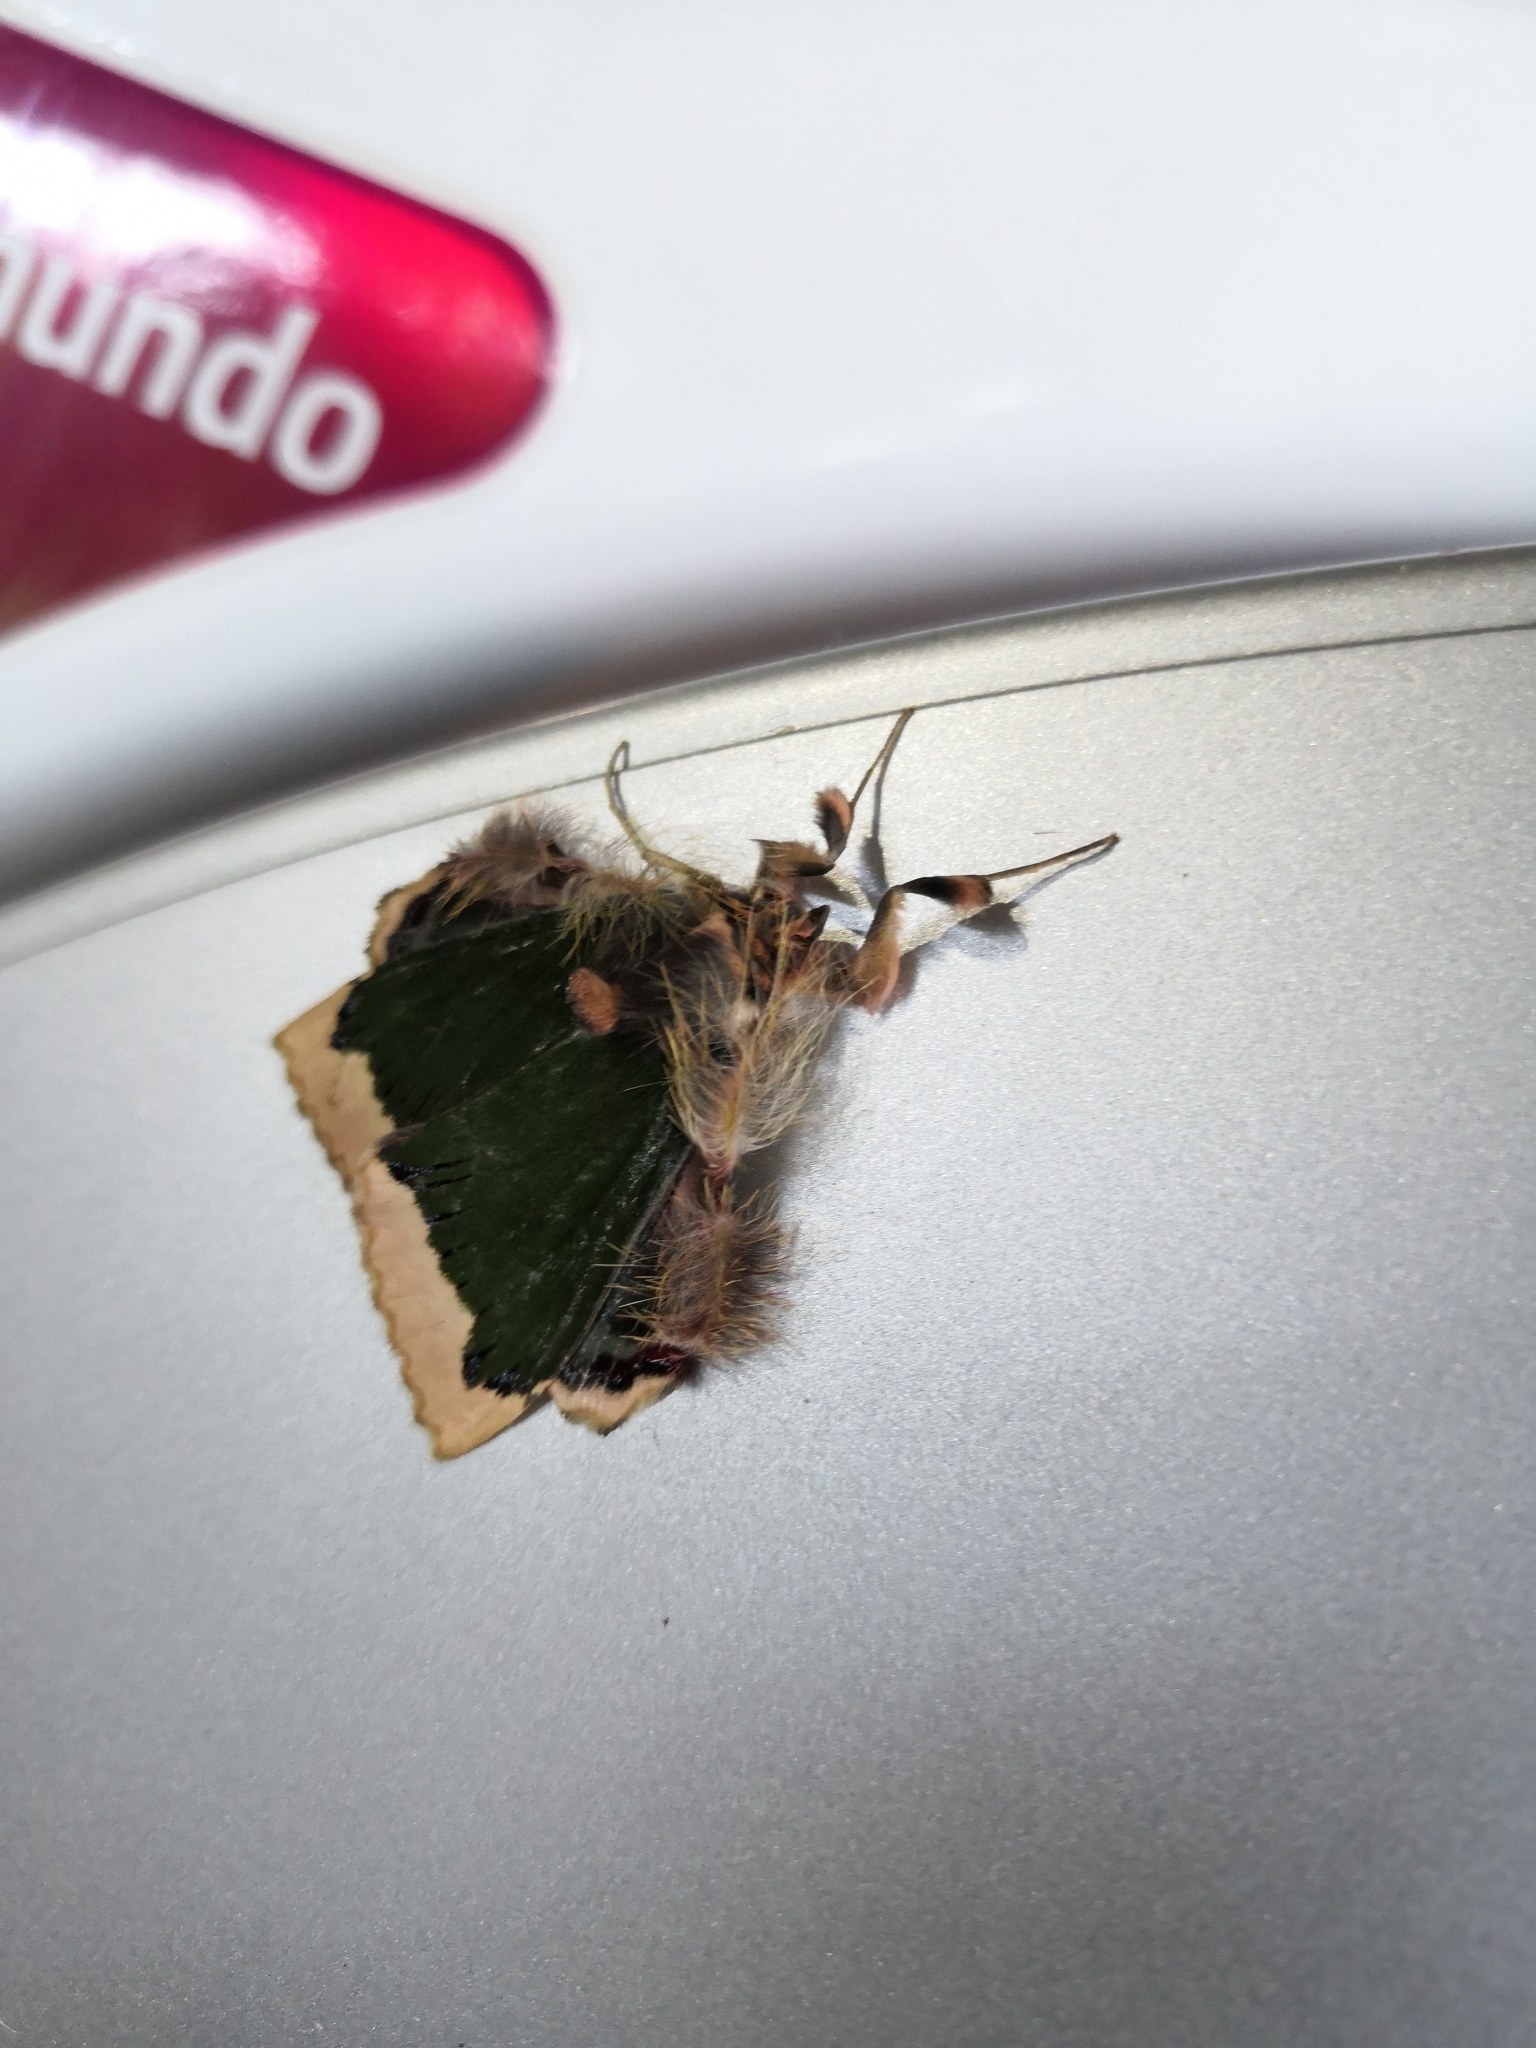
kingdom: Animalia
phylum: Arthropoda
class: Insecta
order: Lepidoptera
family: Erebidae
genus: Ceroctena
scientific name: Ceroctena amynta
